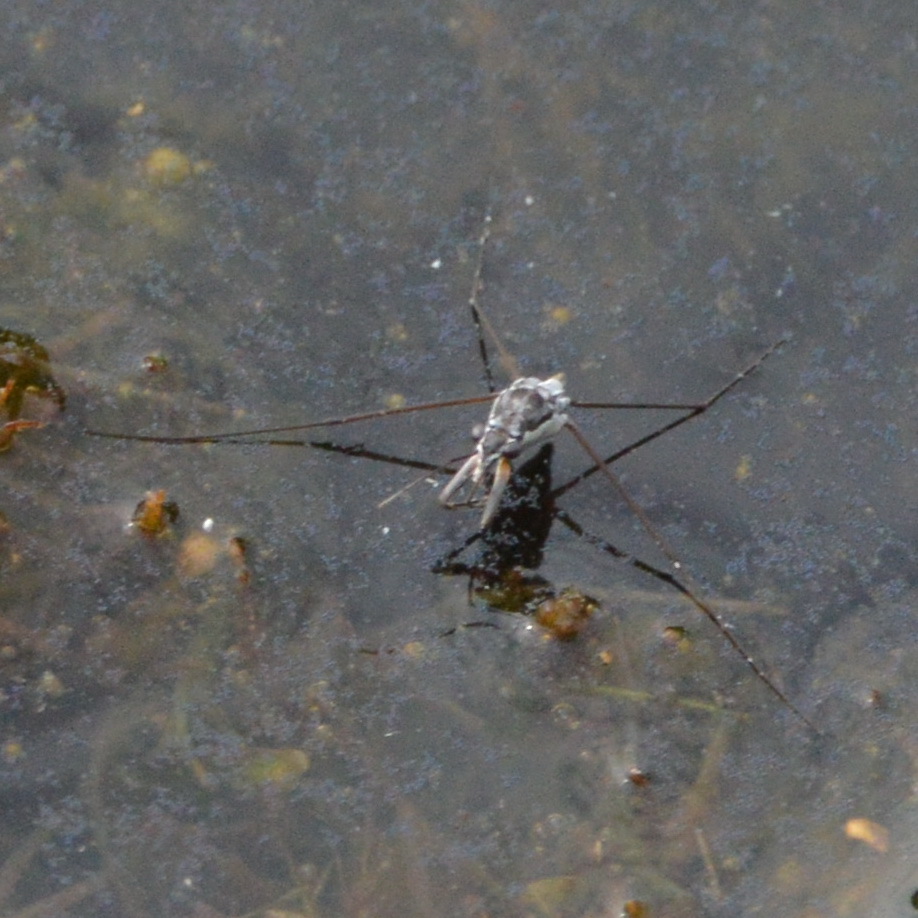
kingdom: Animalia
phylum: Arthropoda
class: Insecta
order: Hemiptera
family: Gerridae
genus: Neogerris
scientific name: Neogerris hesione
